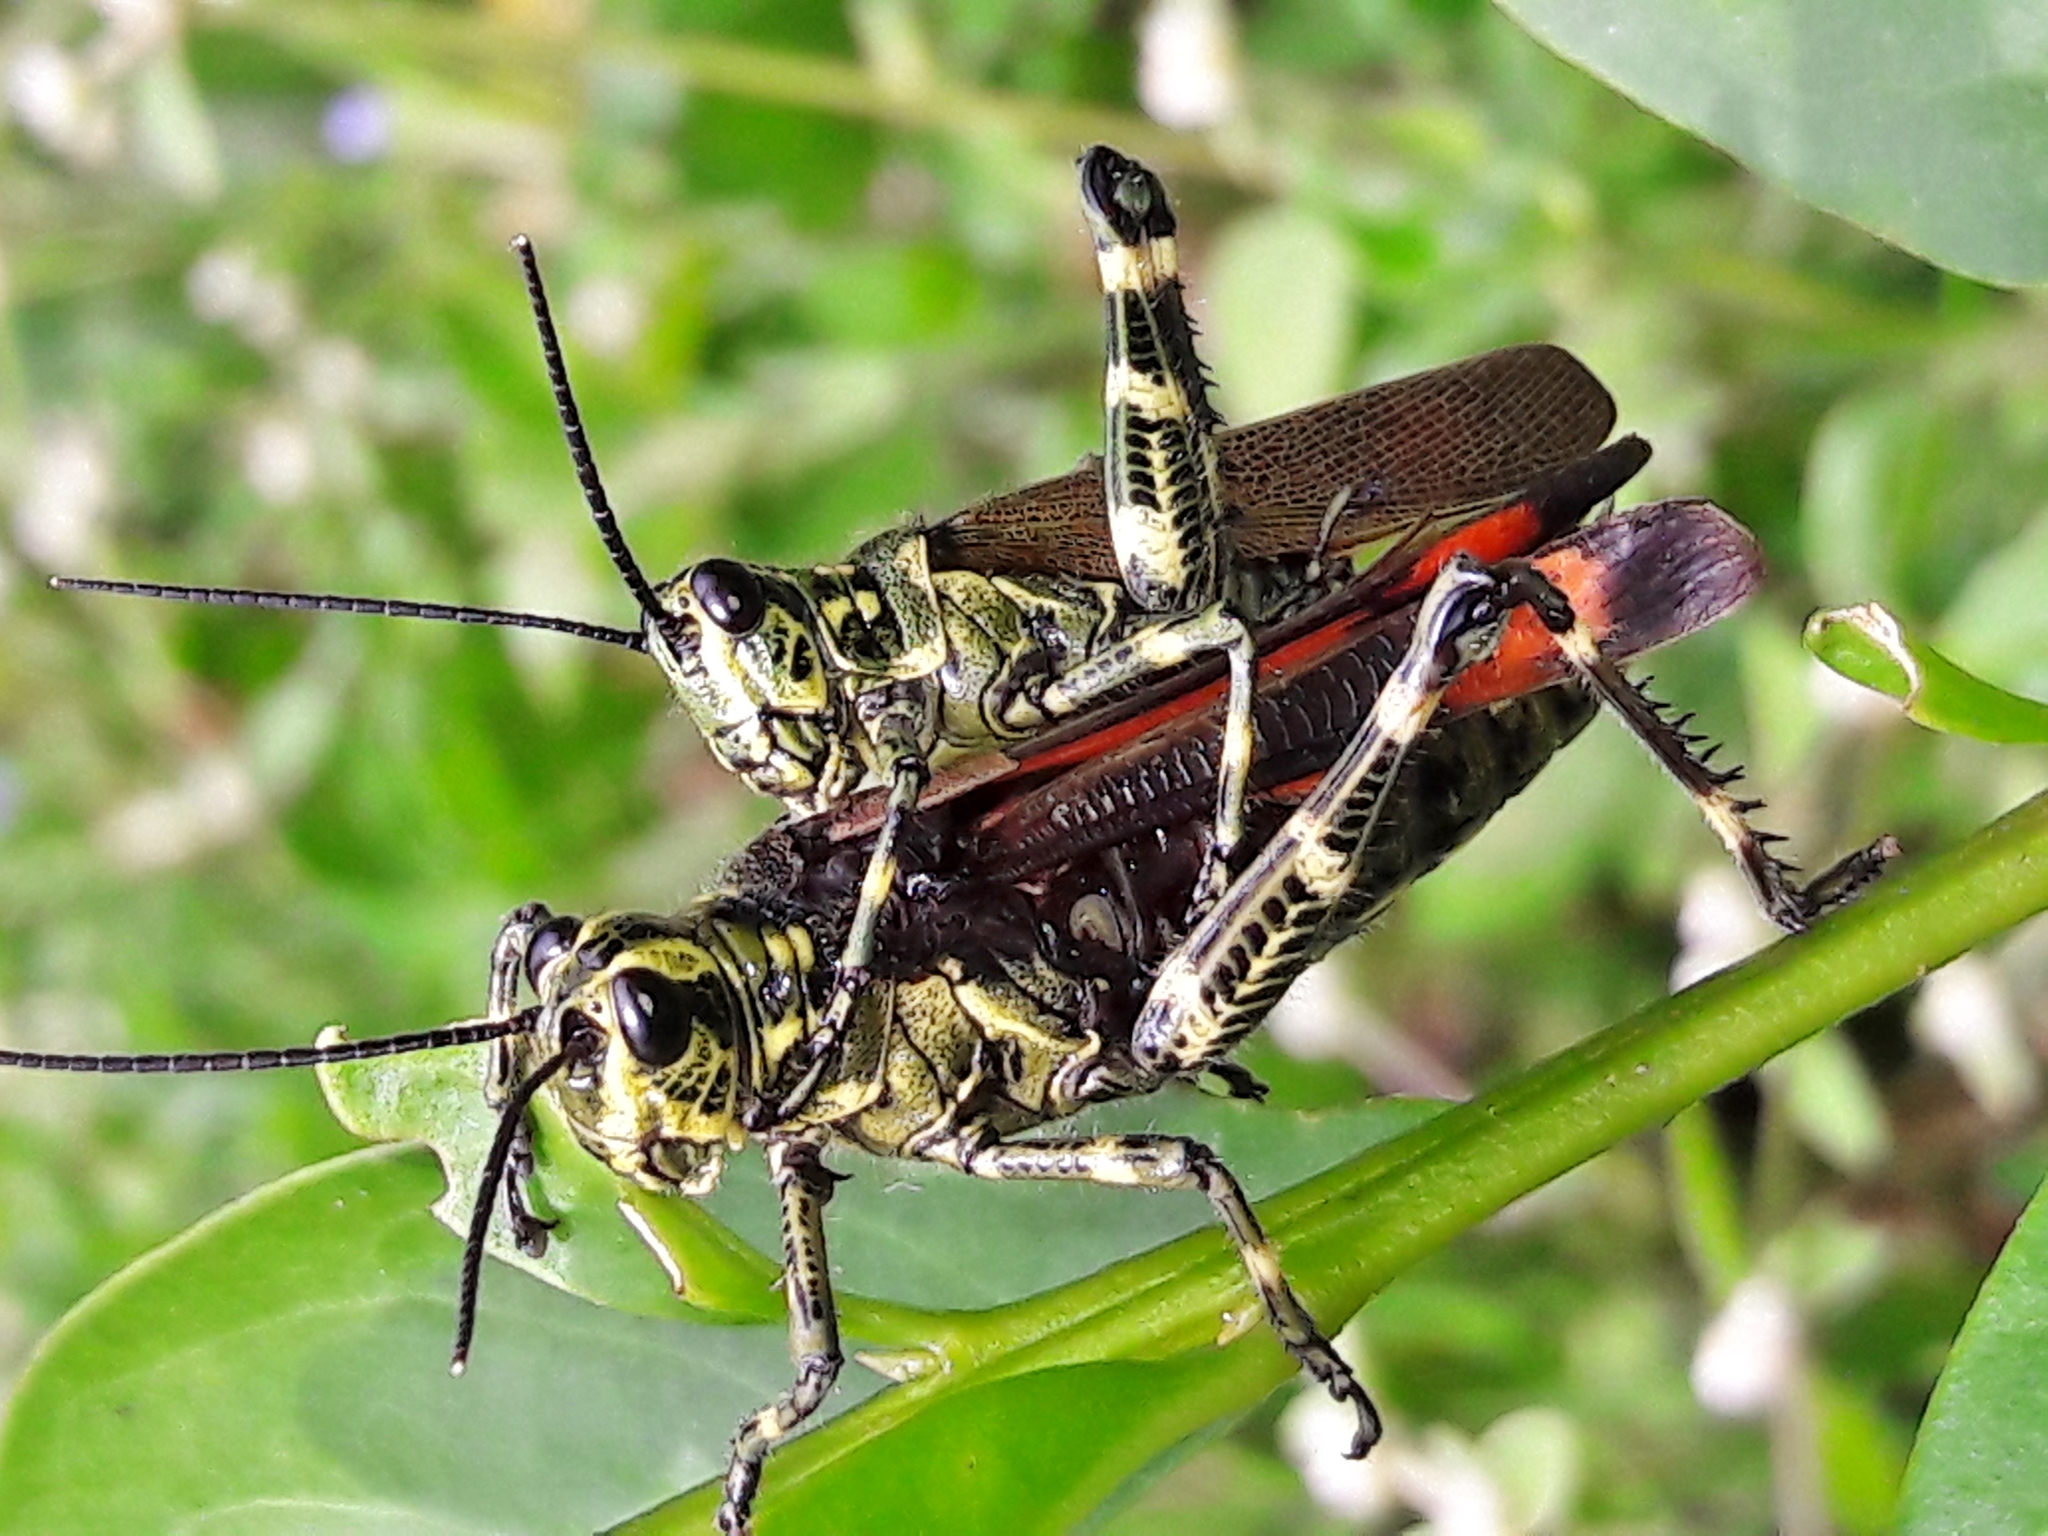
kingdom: Animalia
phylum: Arthropoda
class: Insecta
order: Orthoptera
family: Romaleidae
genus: Chromacris
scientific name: Chromacris speciosa
